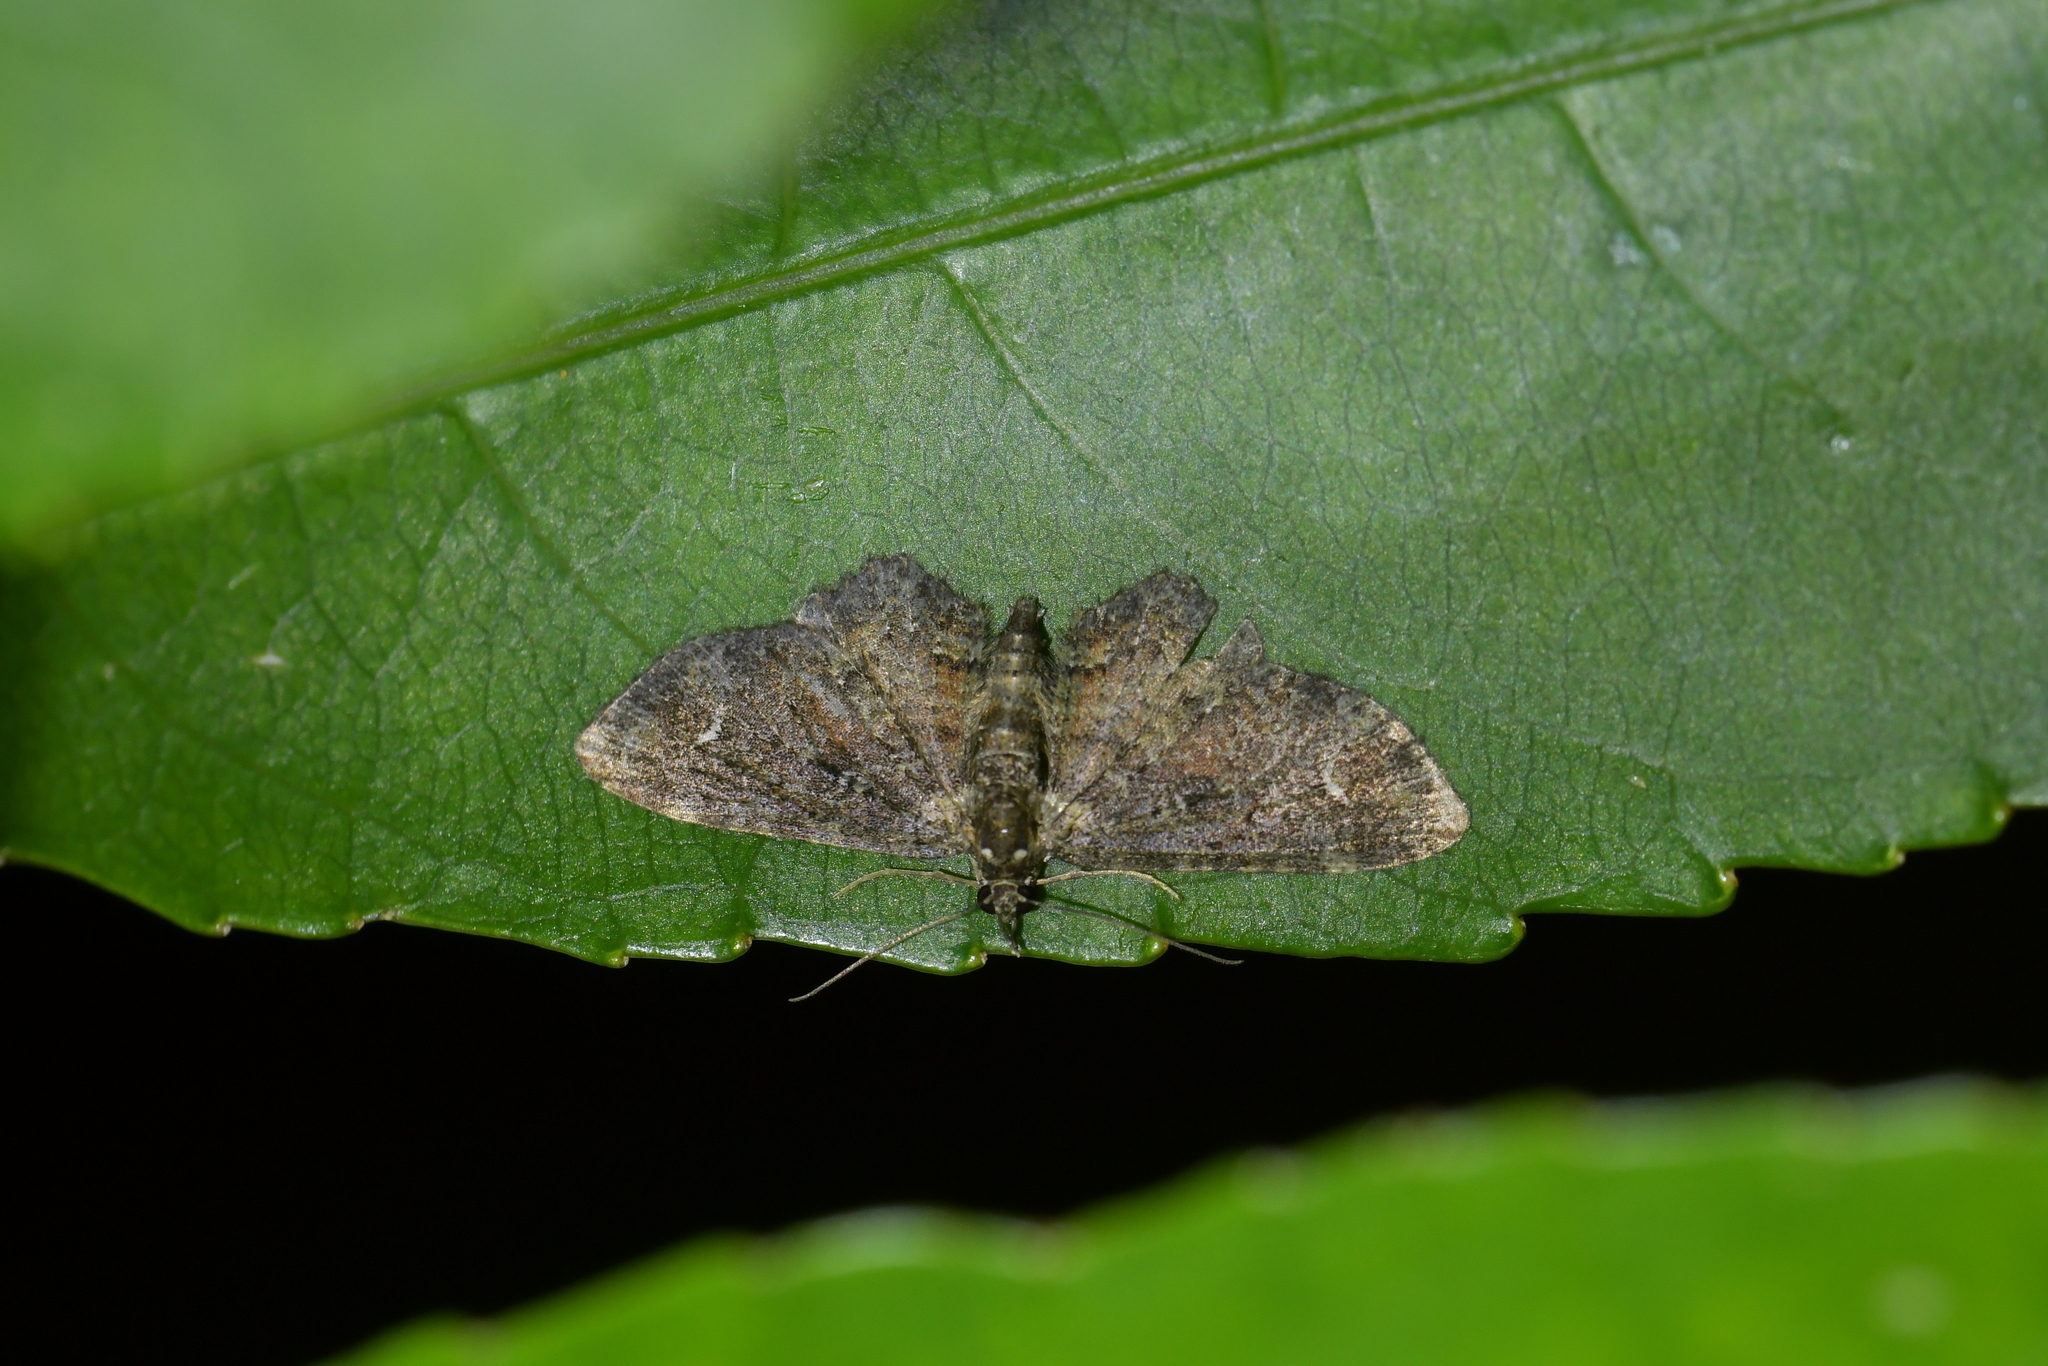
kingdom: Animalia
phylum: Arthropoda
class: Insecta
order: Lepidoptera
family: Geometridae
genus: Pasiphilodes
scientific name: Pasiphilodes testulata
